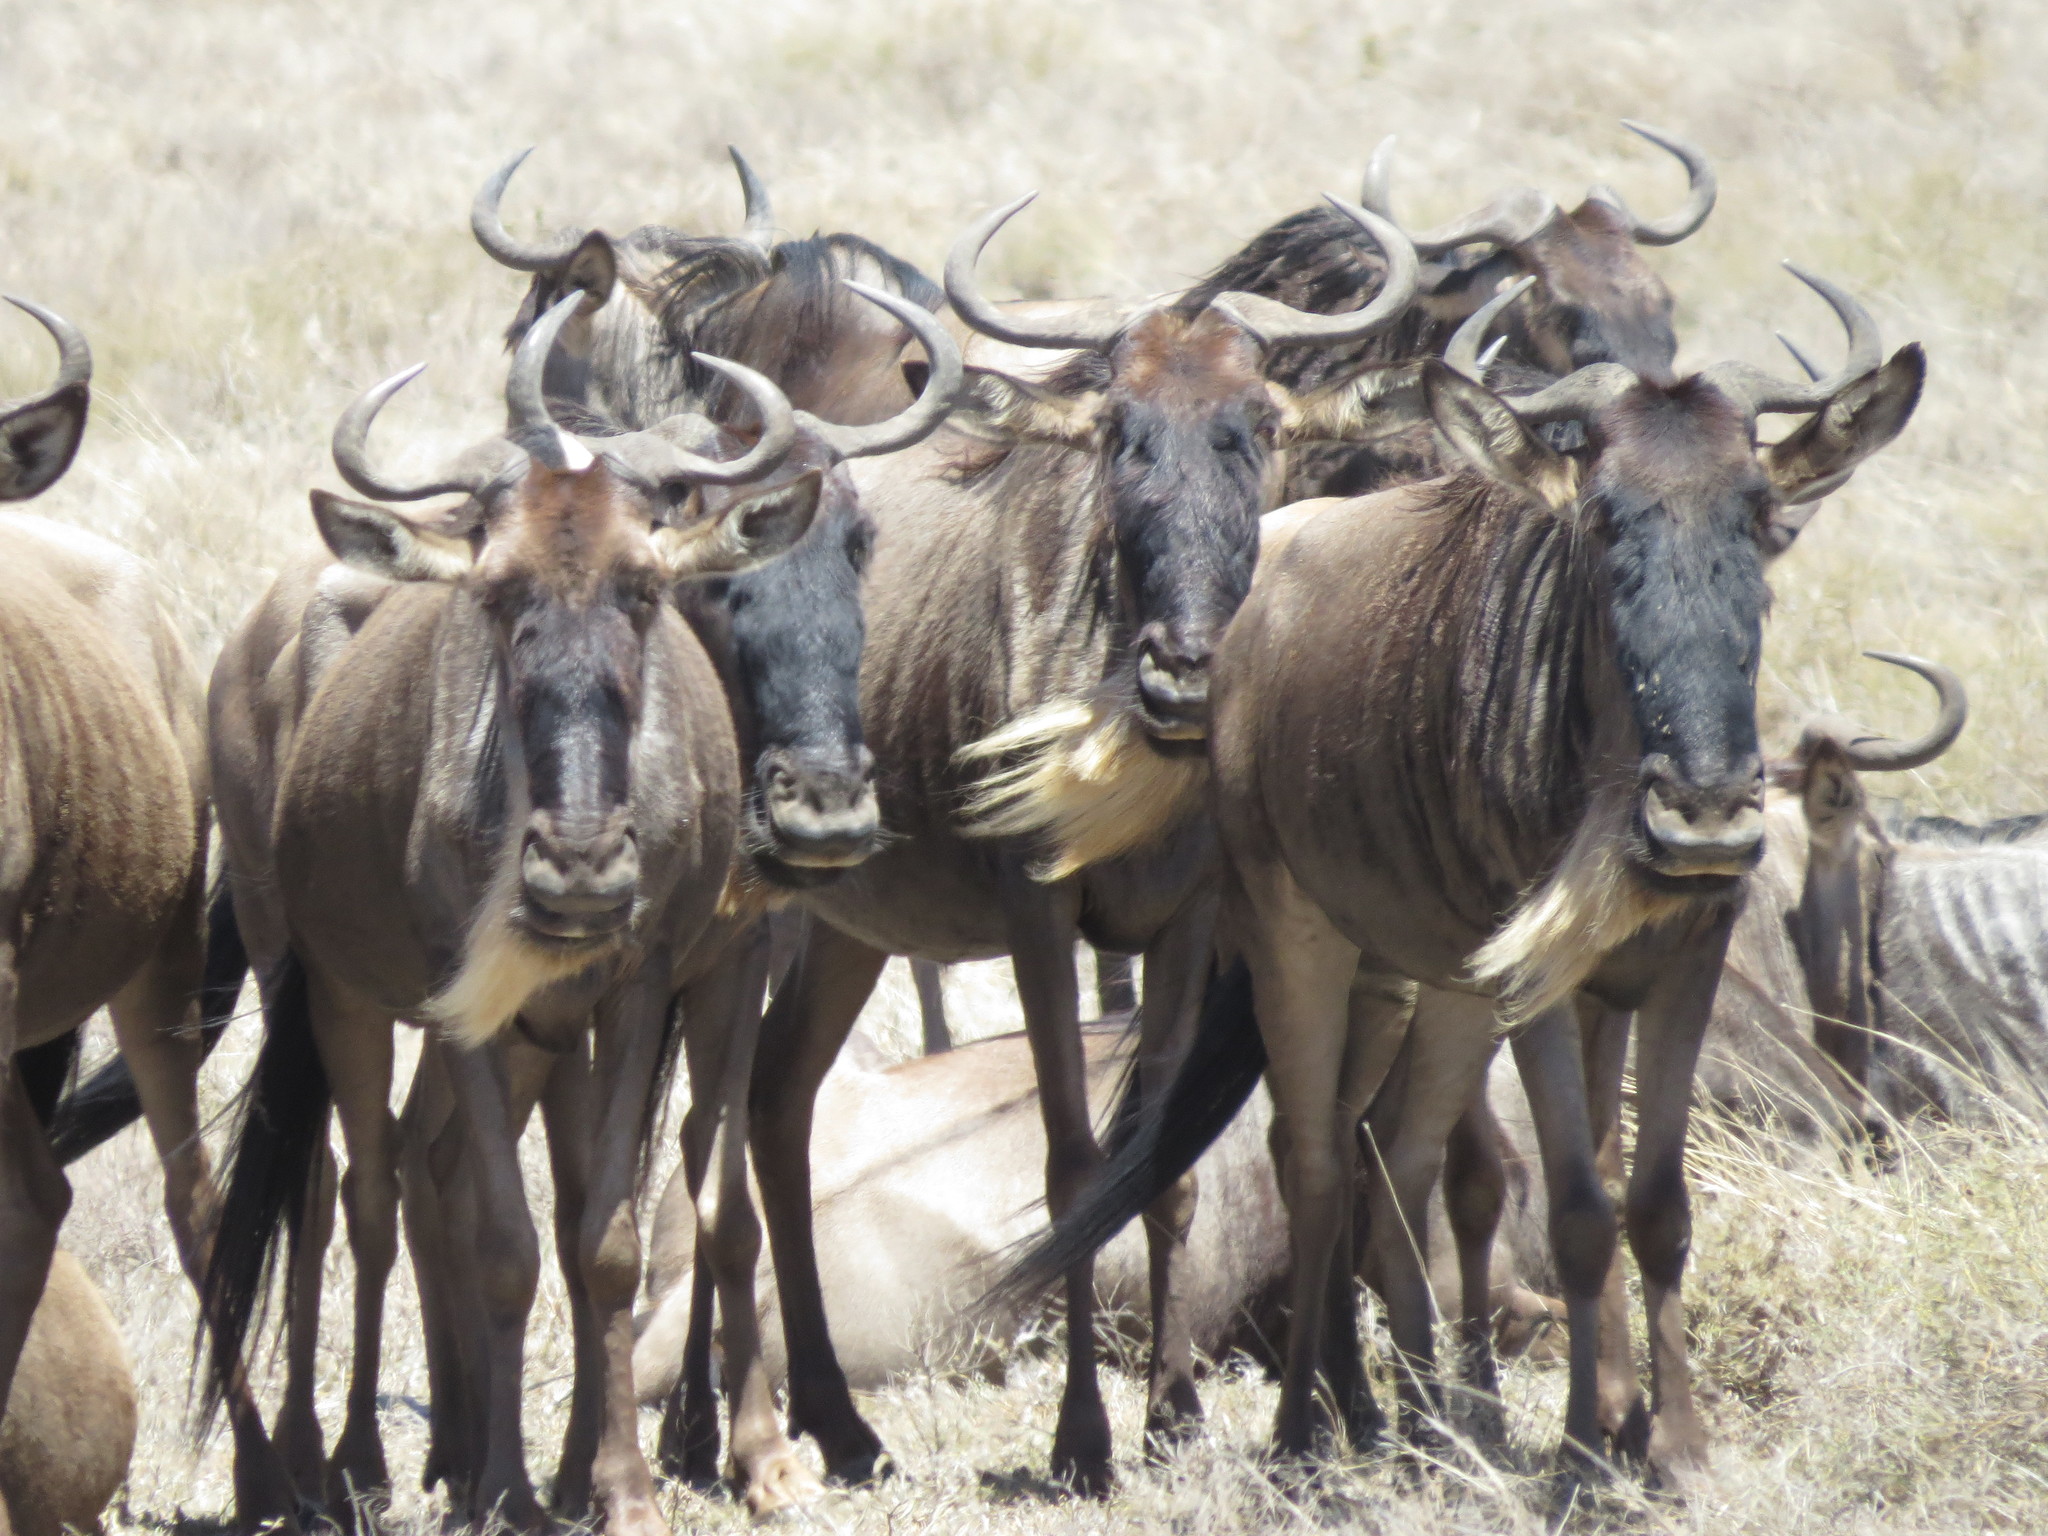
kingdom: Animalia
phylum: Chordata
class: Mammalia
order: Artiodactyla
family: Bovidae
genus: Connochaetes
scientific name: Connochaetes taurinus
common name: Blue wildebeest
